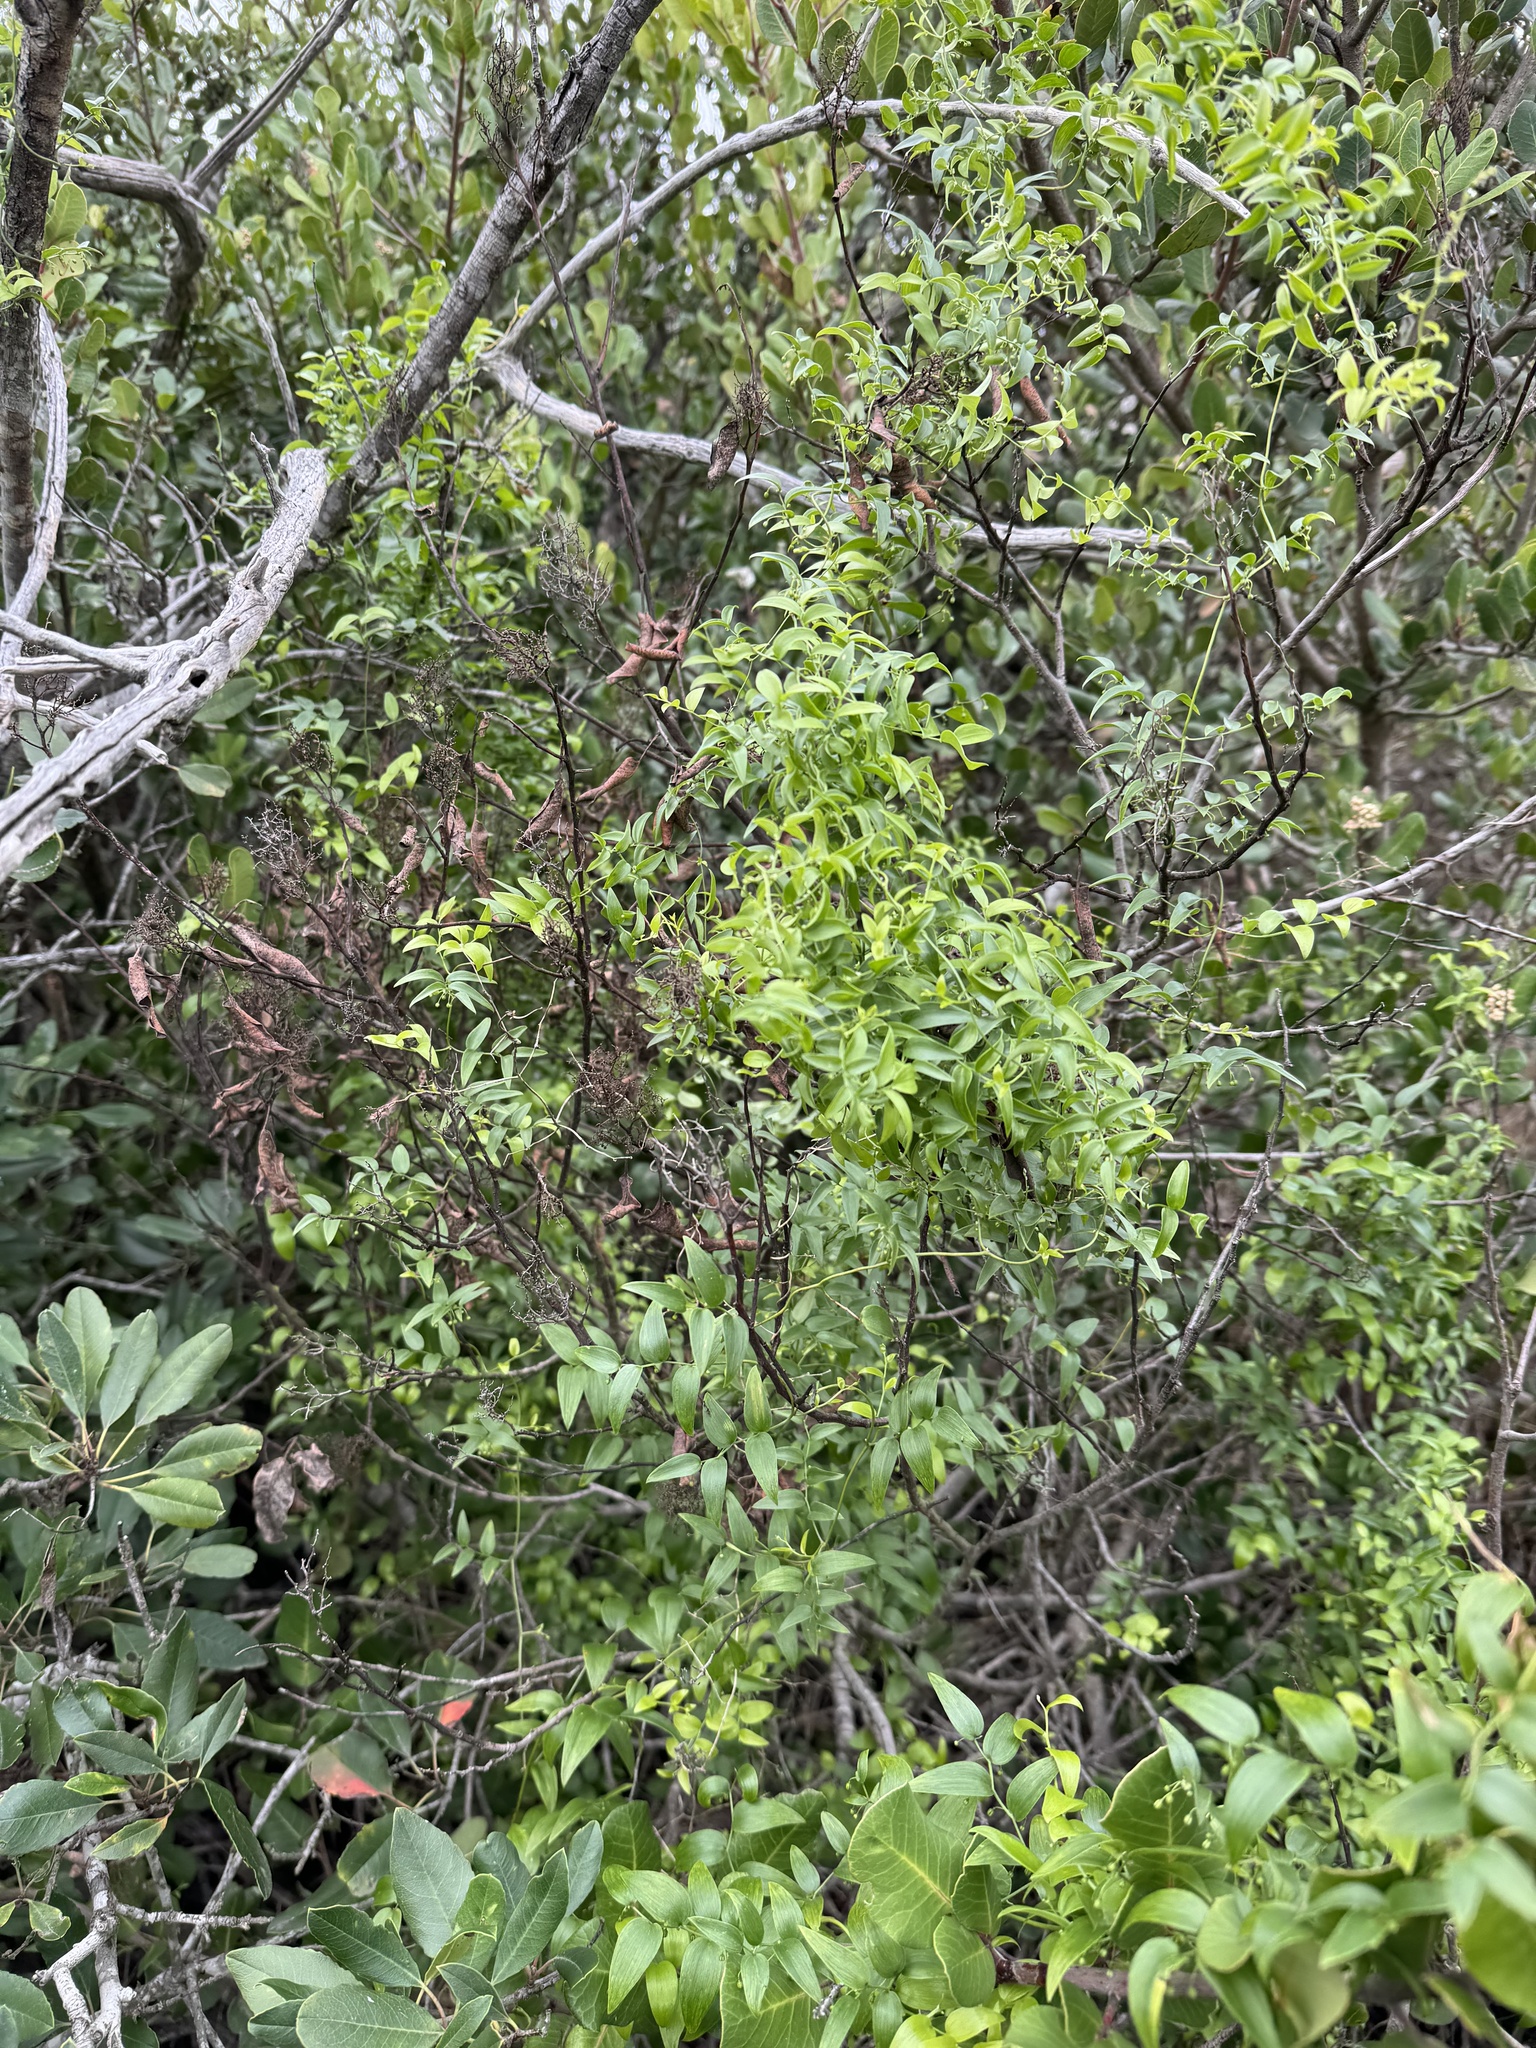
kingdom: Plantae
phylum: Tracheophyta
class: Liliopsida
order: Asparagales
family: Asparagaceae
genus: Asparagus
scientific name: Asparagus asparagoides
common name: African asparagus fern
